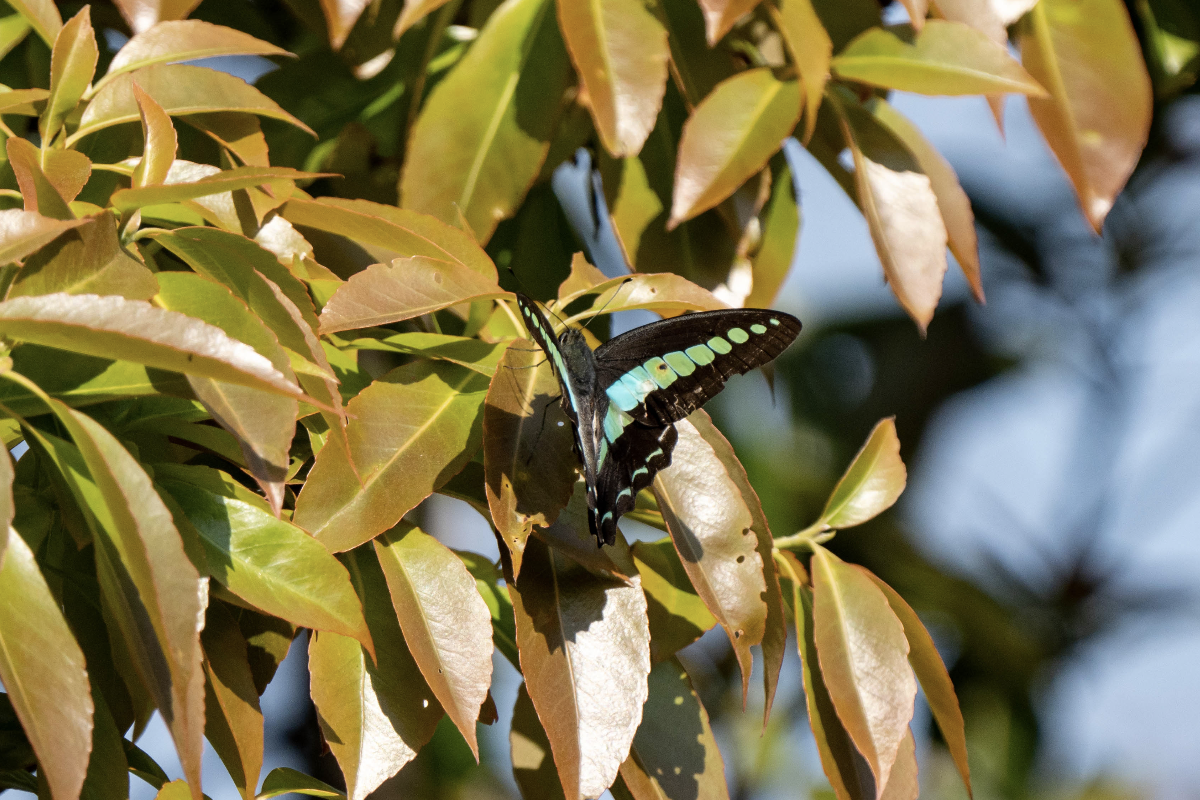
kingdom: Fungi
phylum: Ascomycota
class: Sordariomycetes
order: Microascales
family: Microascaceae
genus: Graphium
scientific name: Graphium sarpedon
